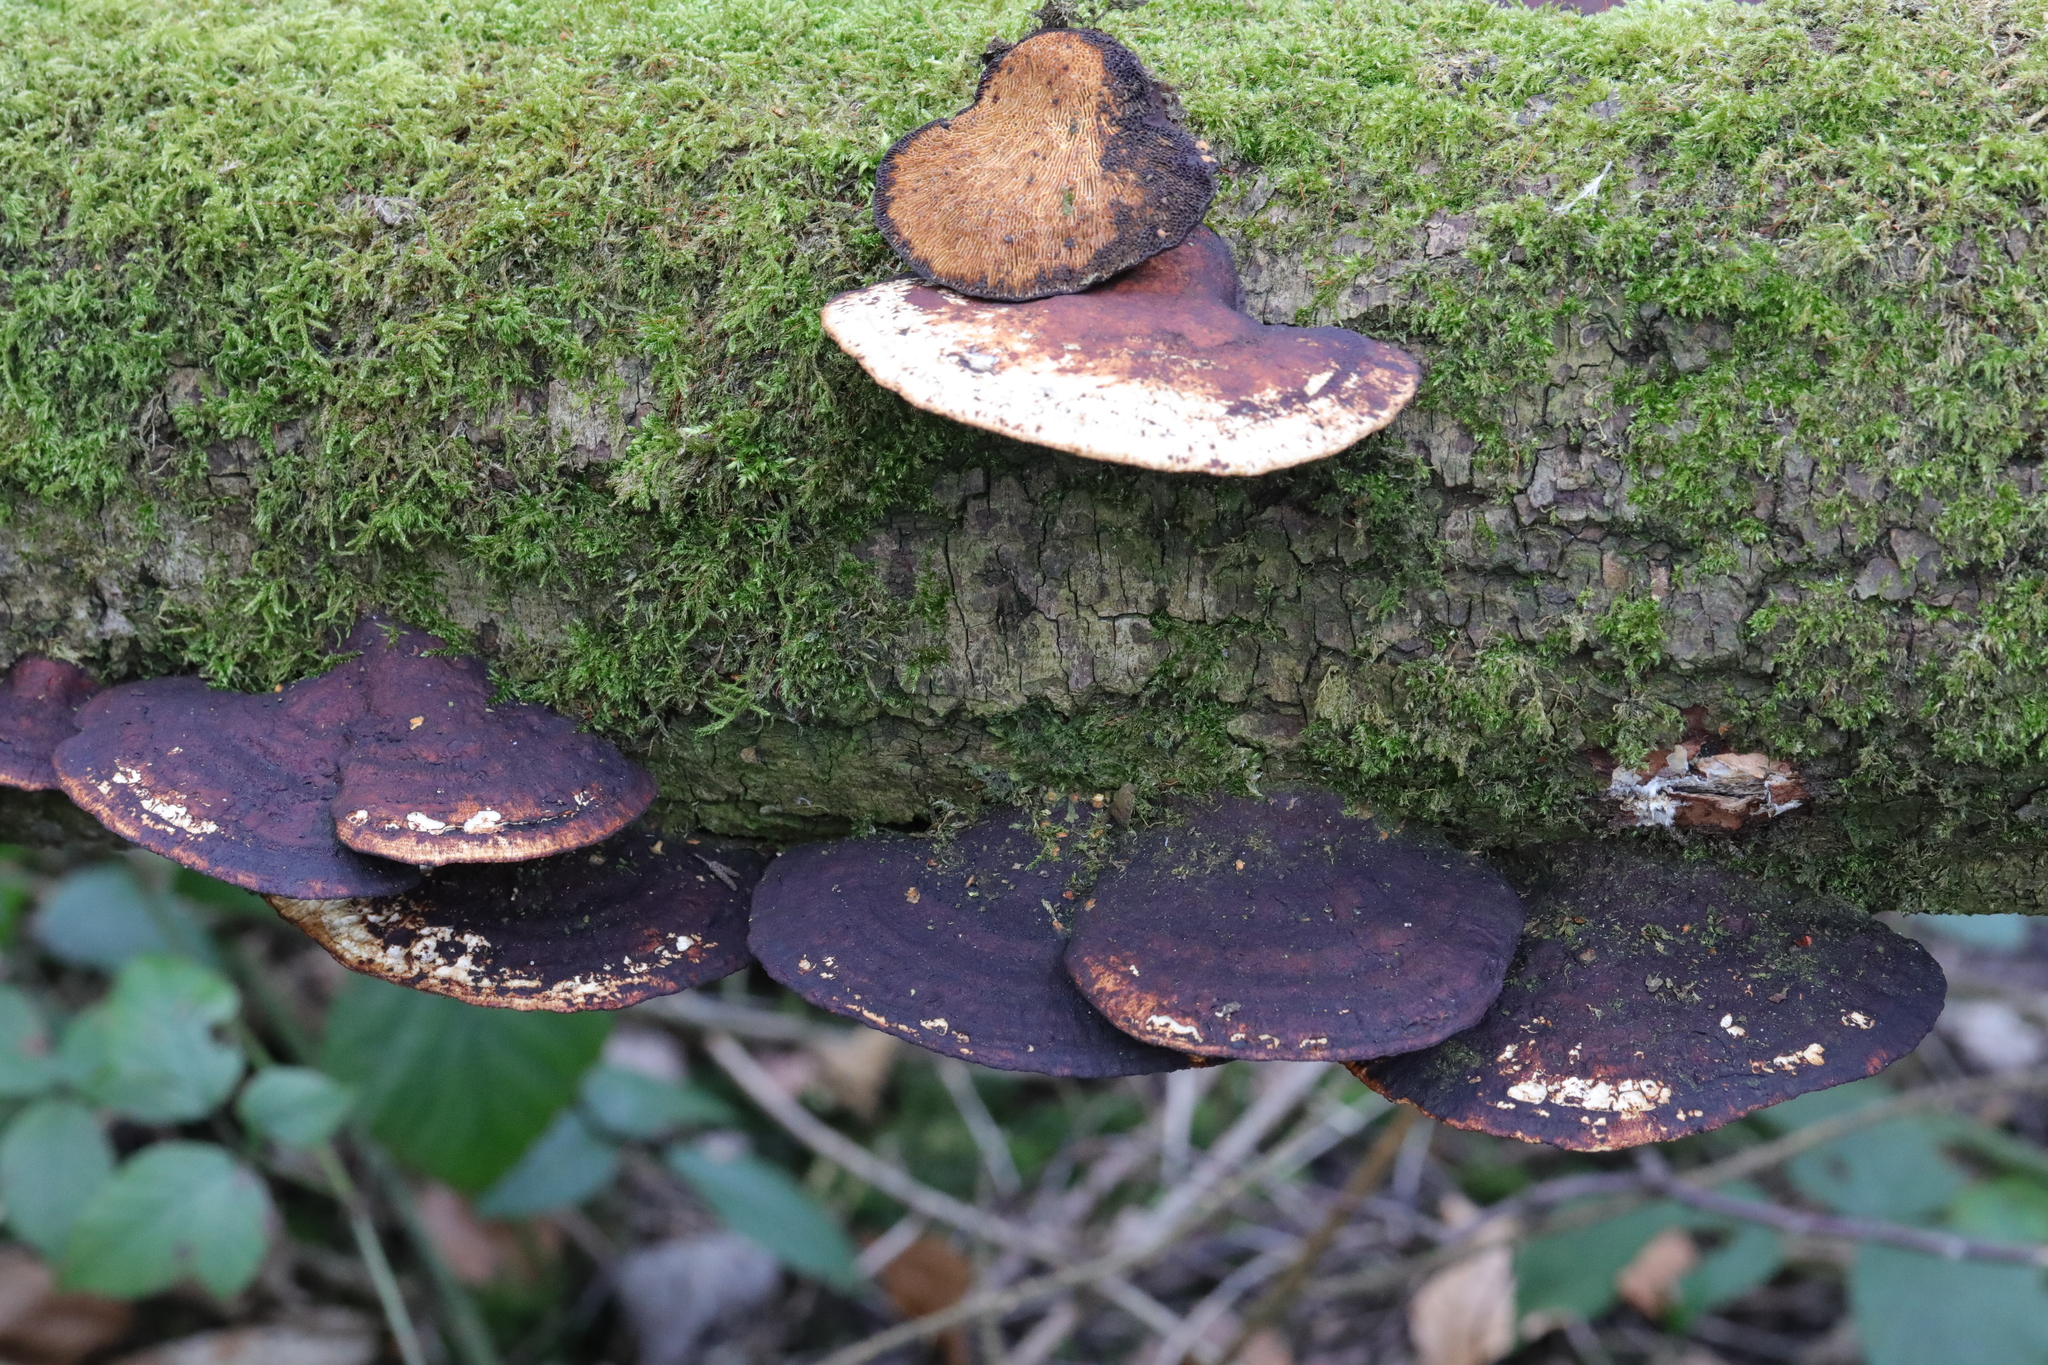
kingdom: Fungi
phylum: Basidiomycota
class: Agaricomycetes
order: Polyporales
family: Polyporaceae
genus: Daedaleopsis
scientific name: Daedaleopsis confragosa
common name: Blushing bracket
